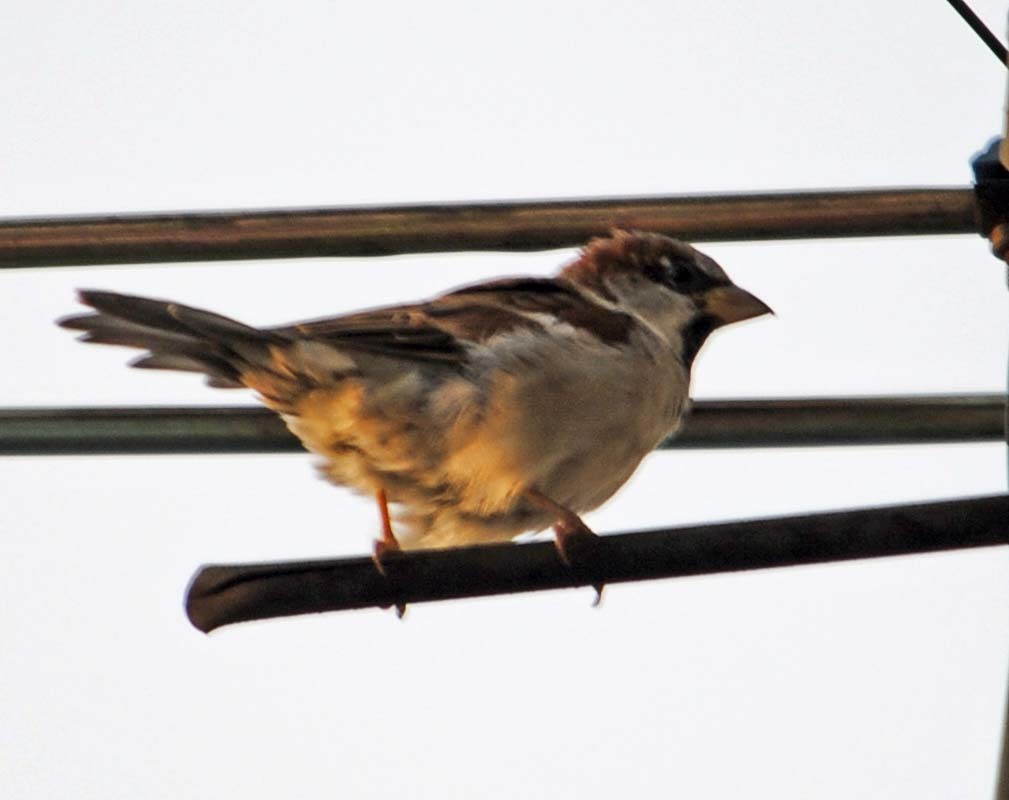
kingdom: Animalia
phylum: Chordata
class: Aves
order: Passeriformes
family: Passeridae
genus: Passer
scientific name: Passer domesticus
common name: House sparrow
